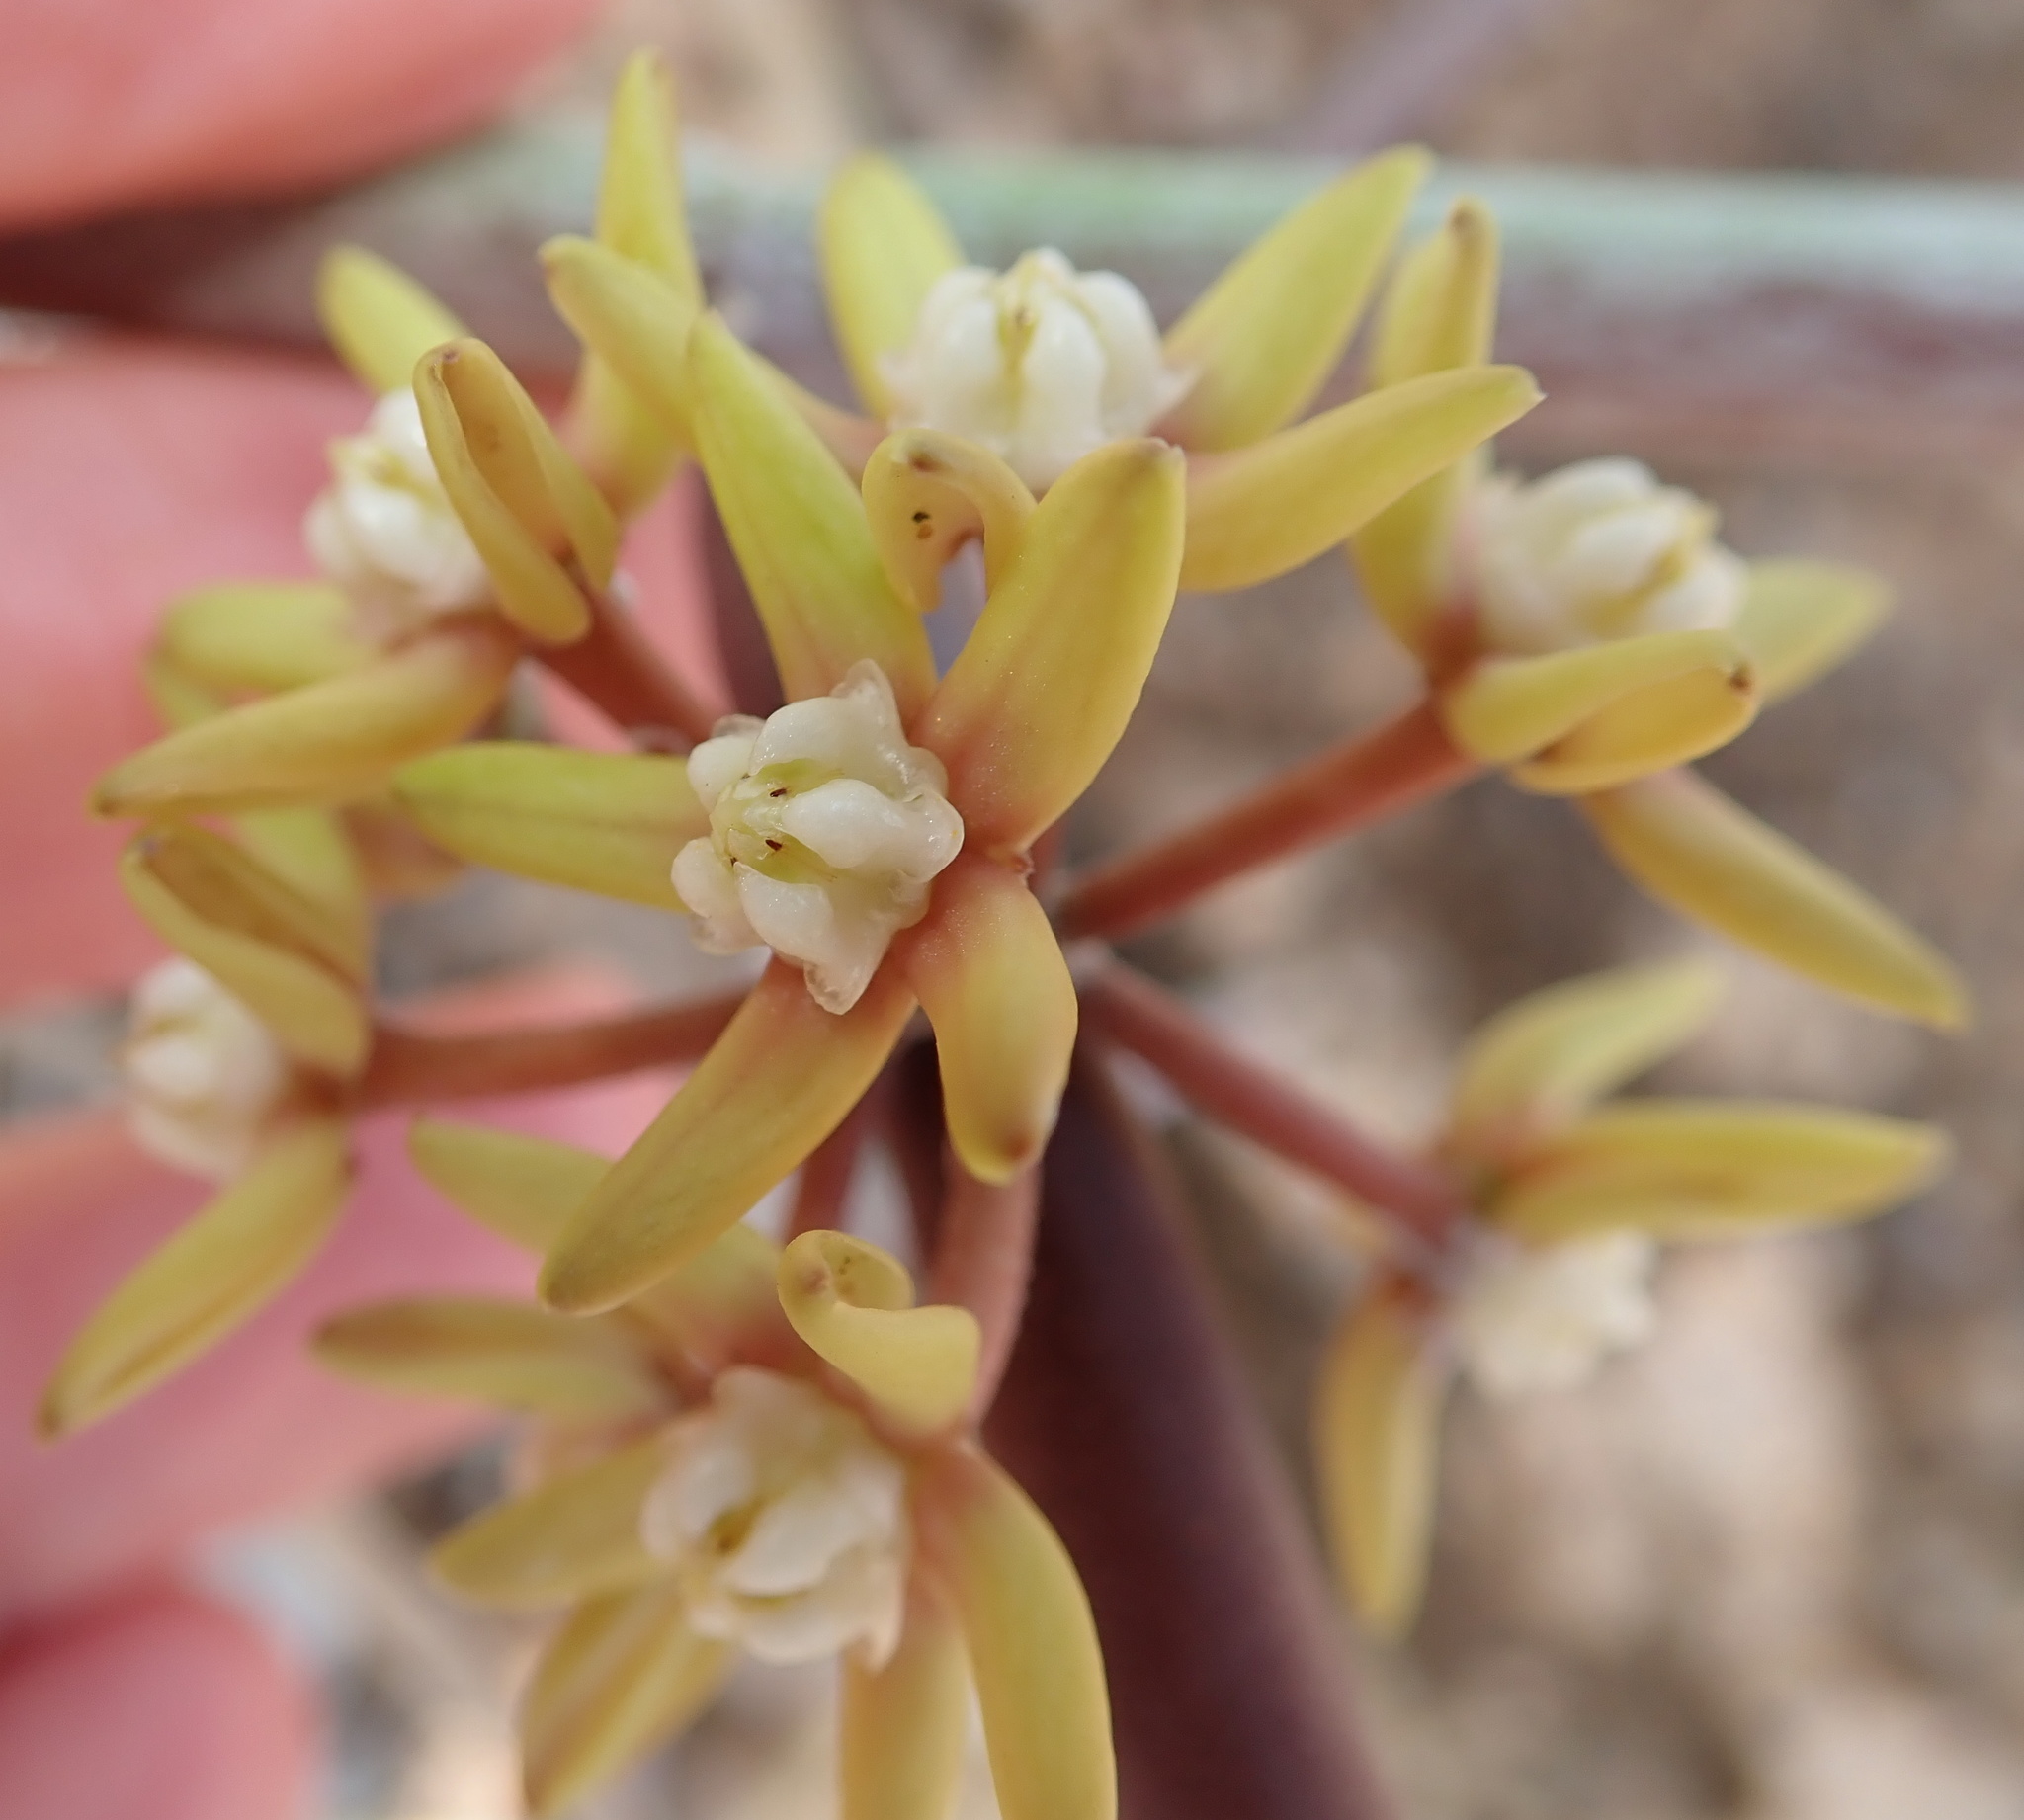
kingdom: Plantae
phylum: Tracheophyta
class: Magnoliopsida
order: Gentianales
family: Apocynaceae
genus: Cynanchum
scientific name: Cynanchum viminale
